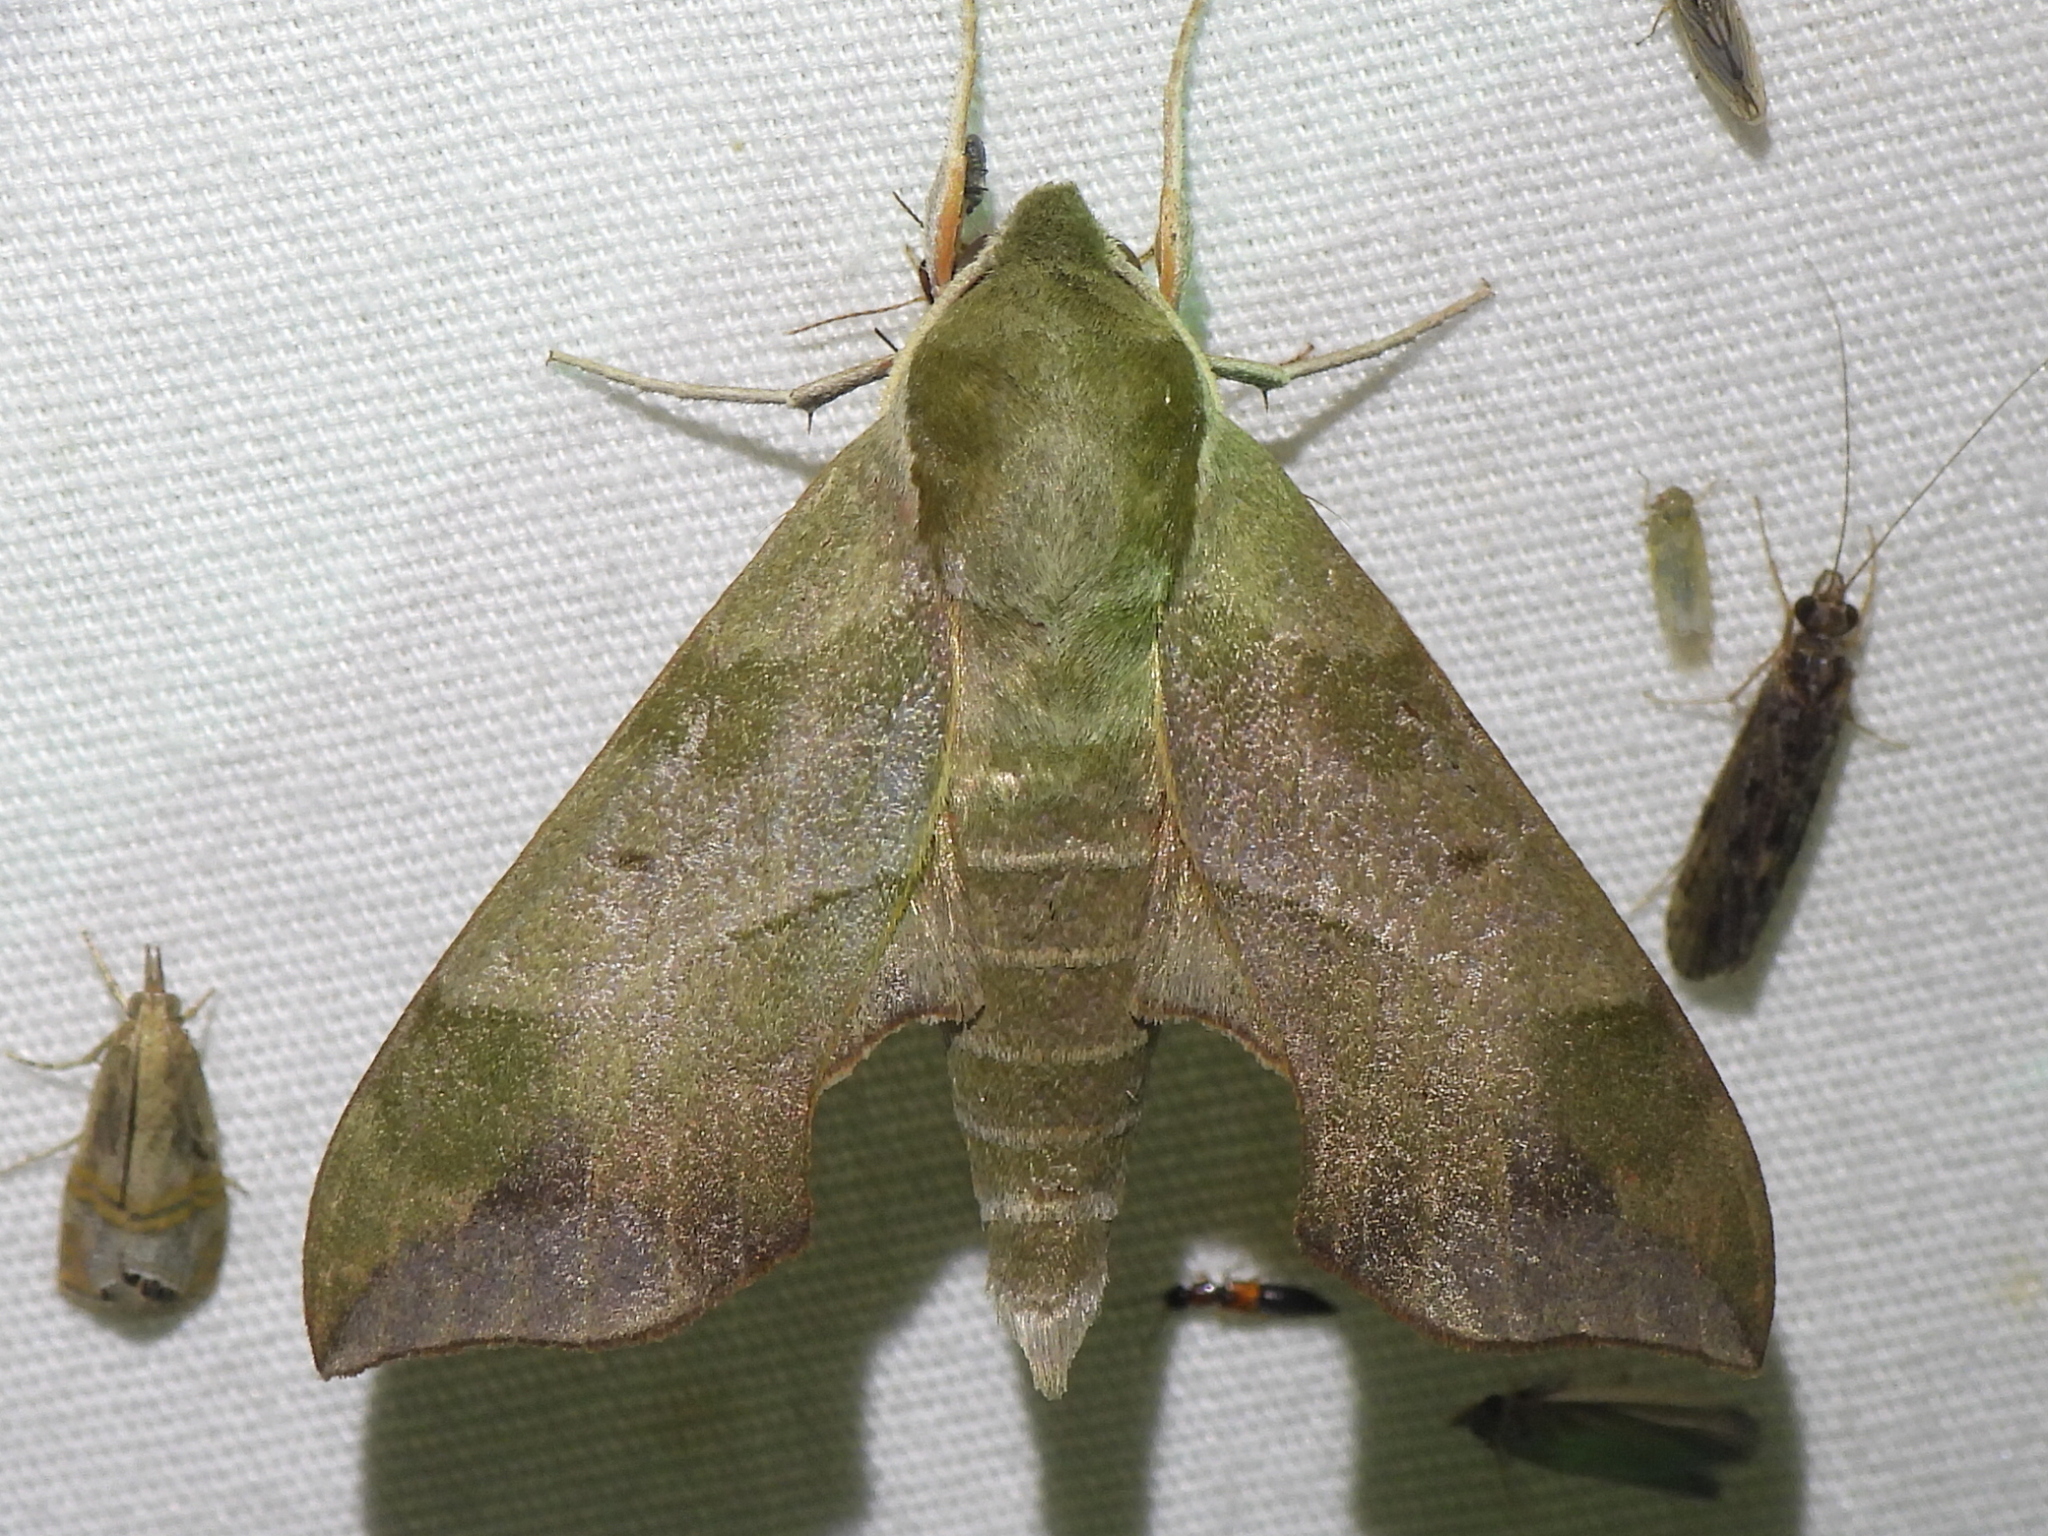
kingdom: Animalia
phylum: Arthropoda
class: Insecta
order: Lepidoptera
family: Sphingidae
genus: Darapsa
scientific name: Darapsa myron
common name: Hog sphinx
